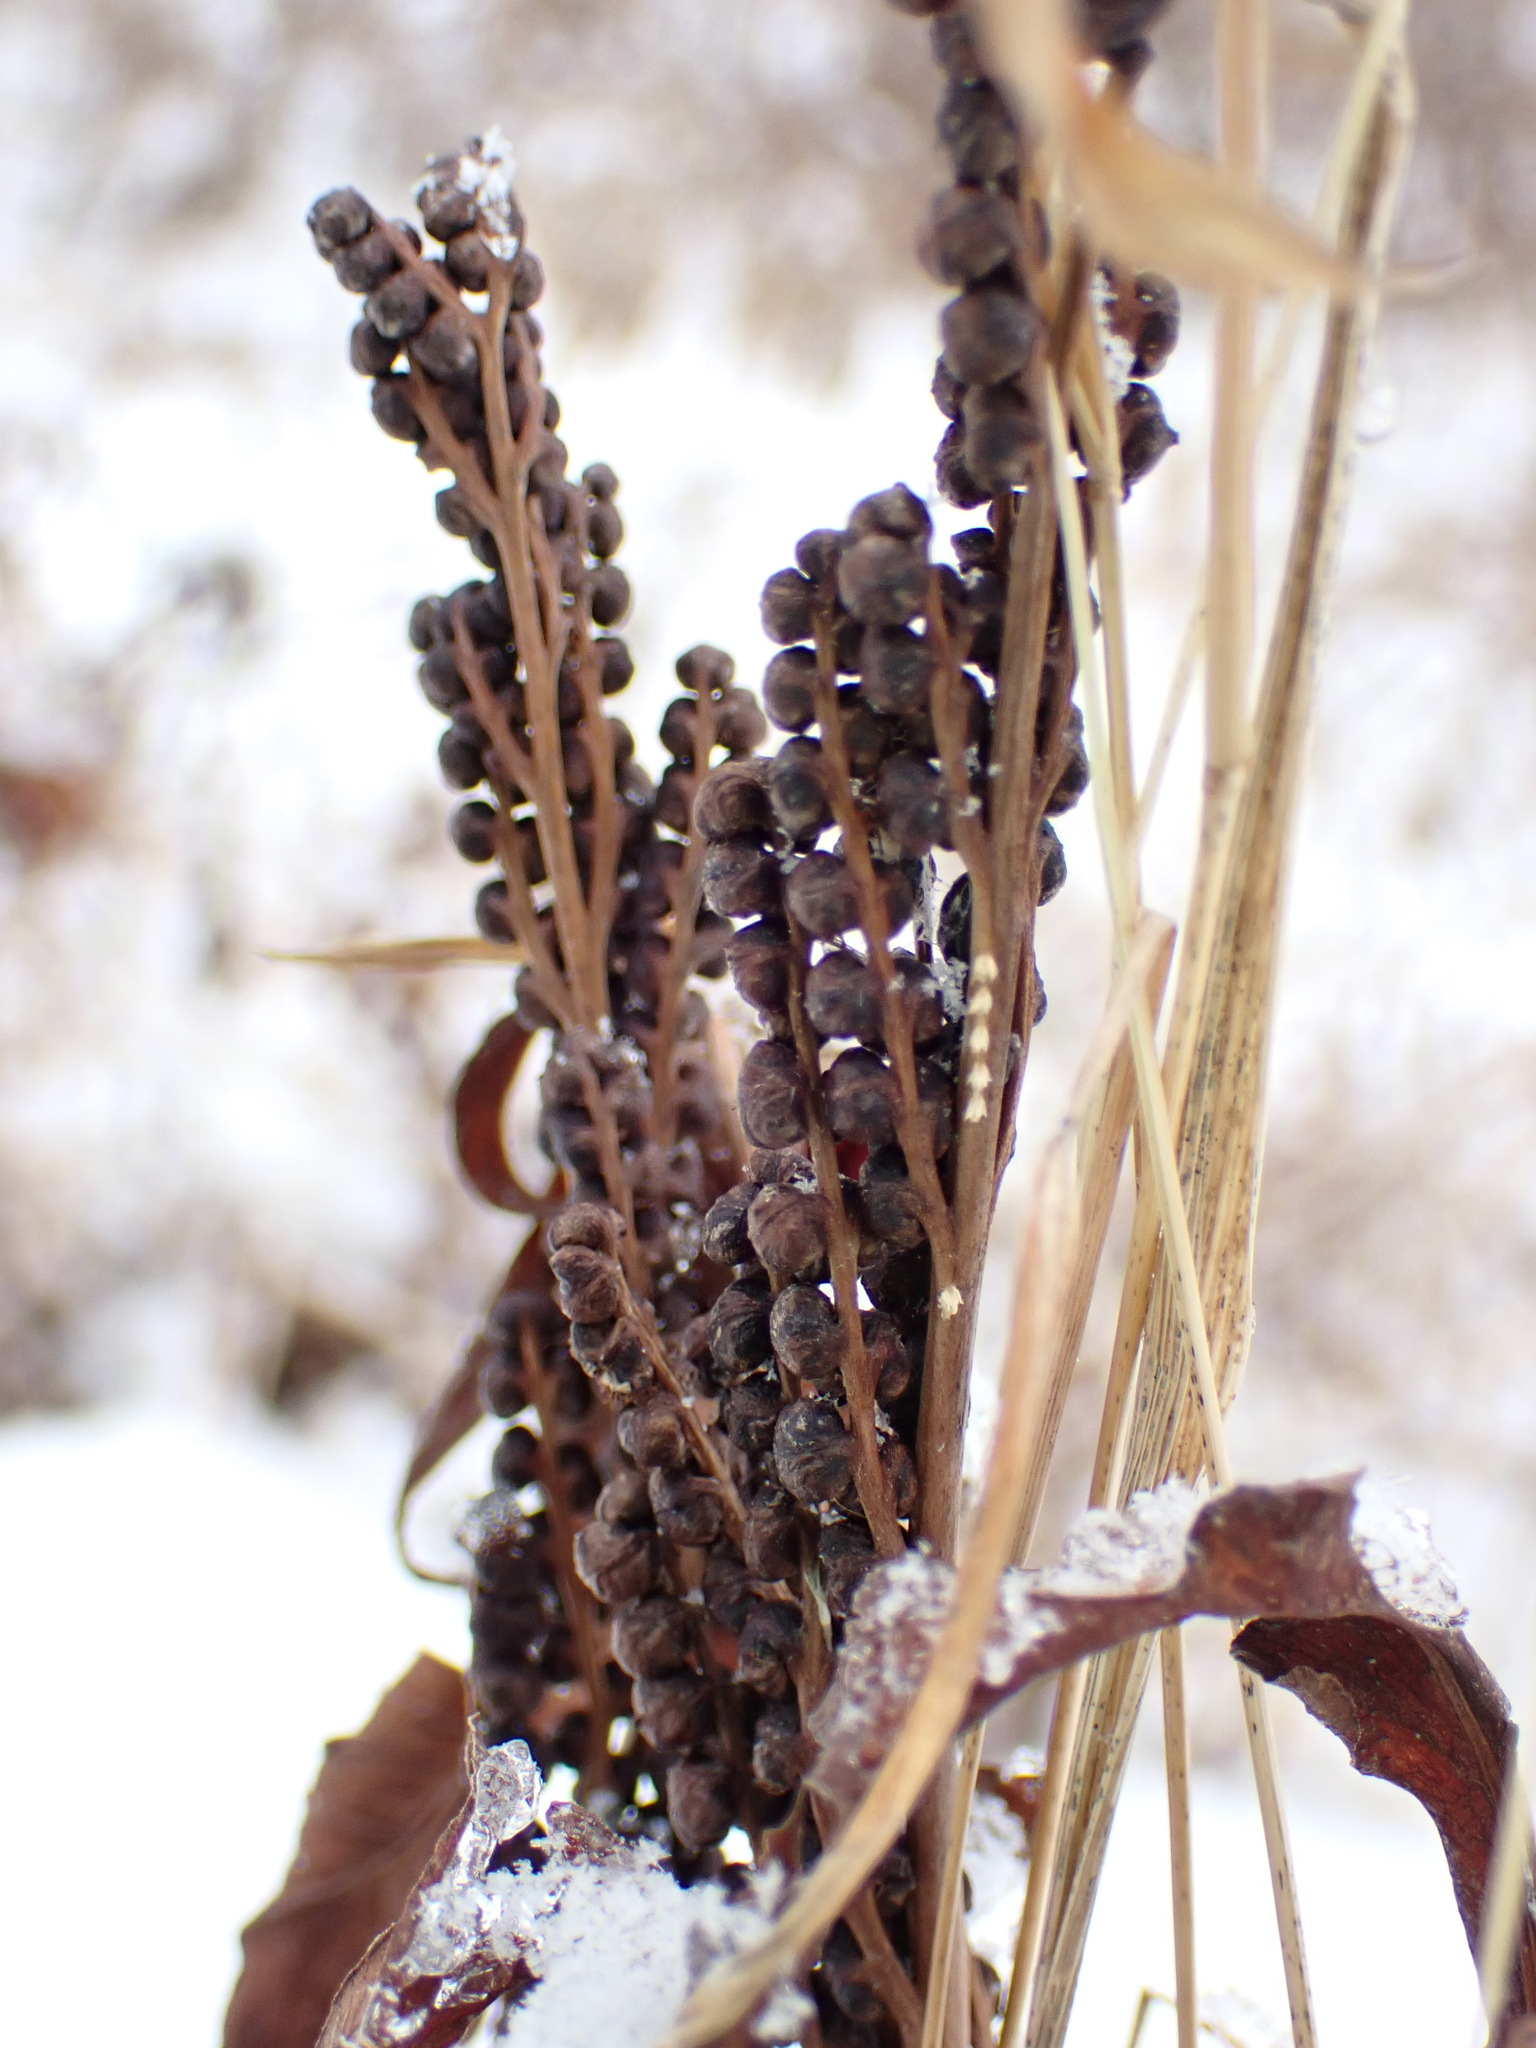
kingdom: Plantae
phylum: Tracheophyta
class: Polypodiopsida
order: Polypodiales
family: Onocleaceae
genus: Onoclea
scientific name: Onoclea sensibilis
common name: Sensitive fern
